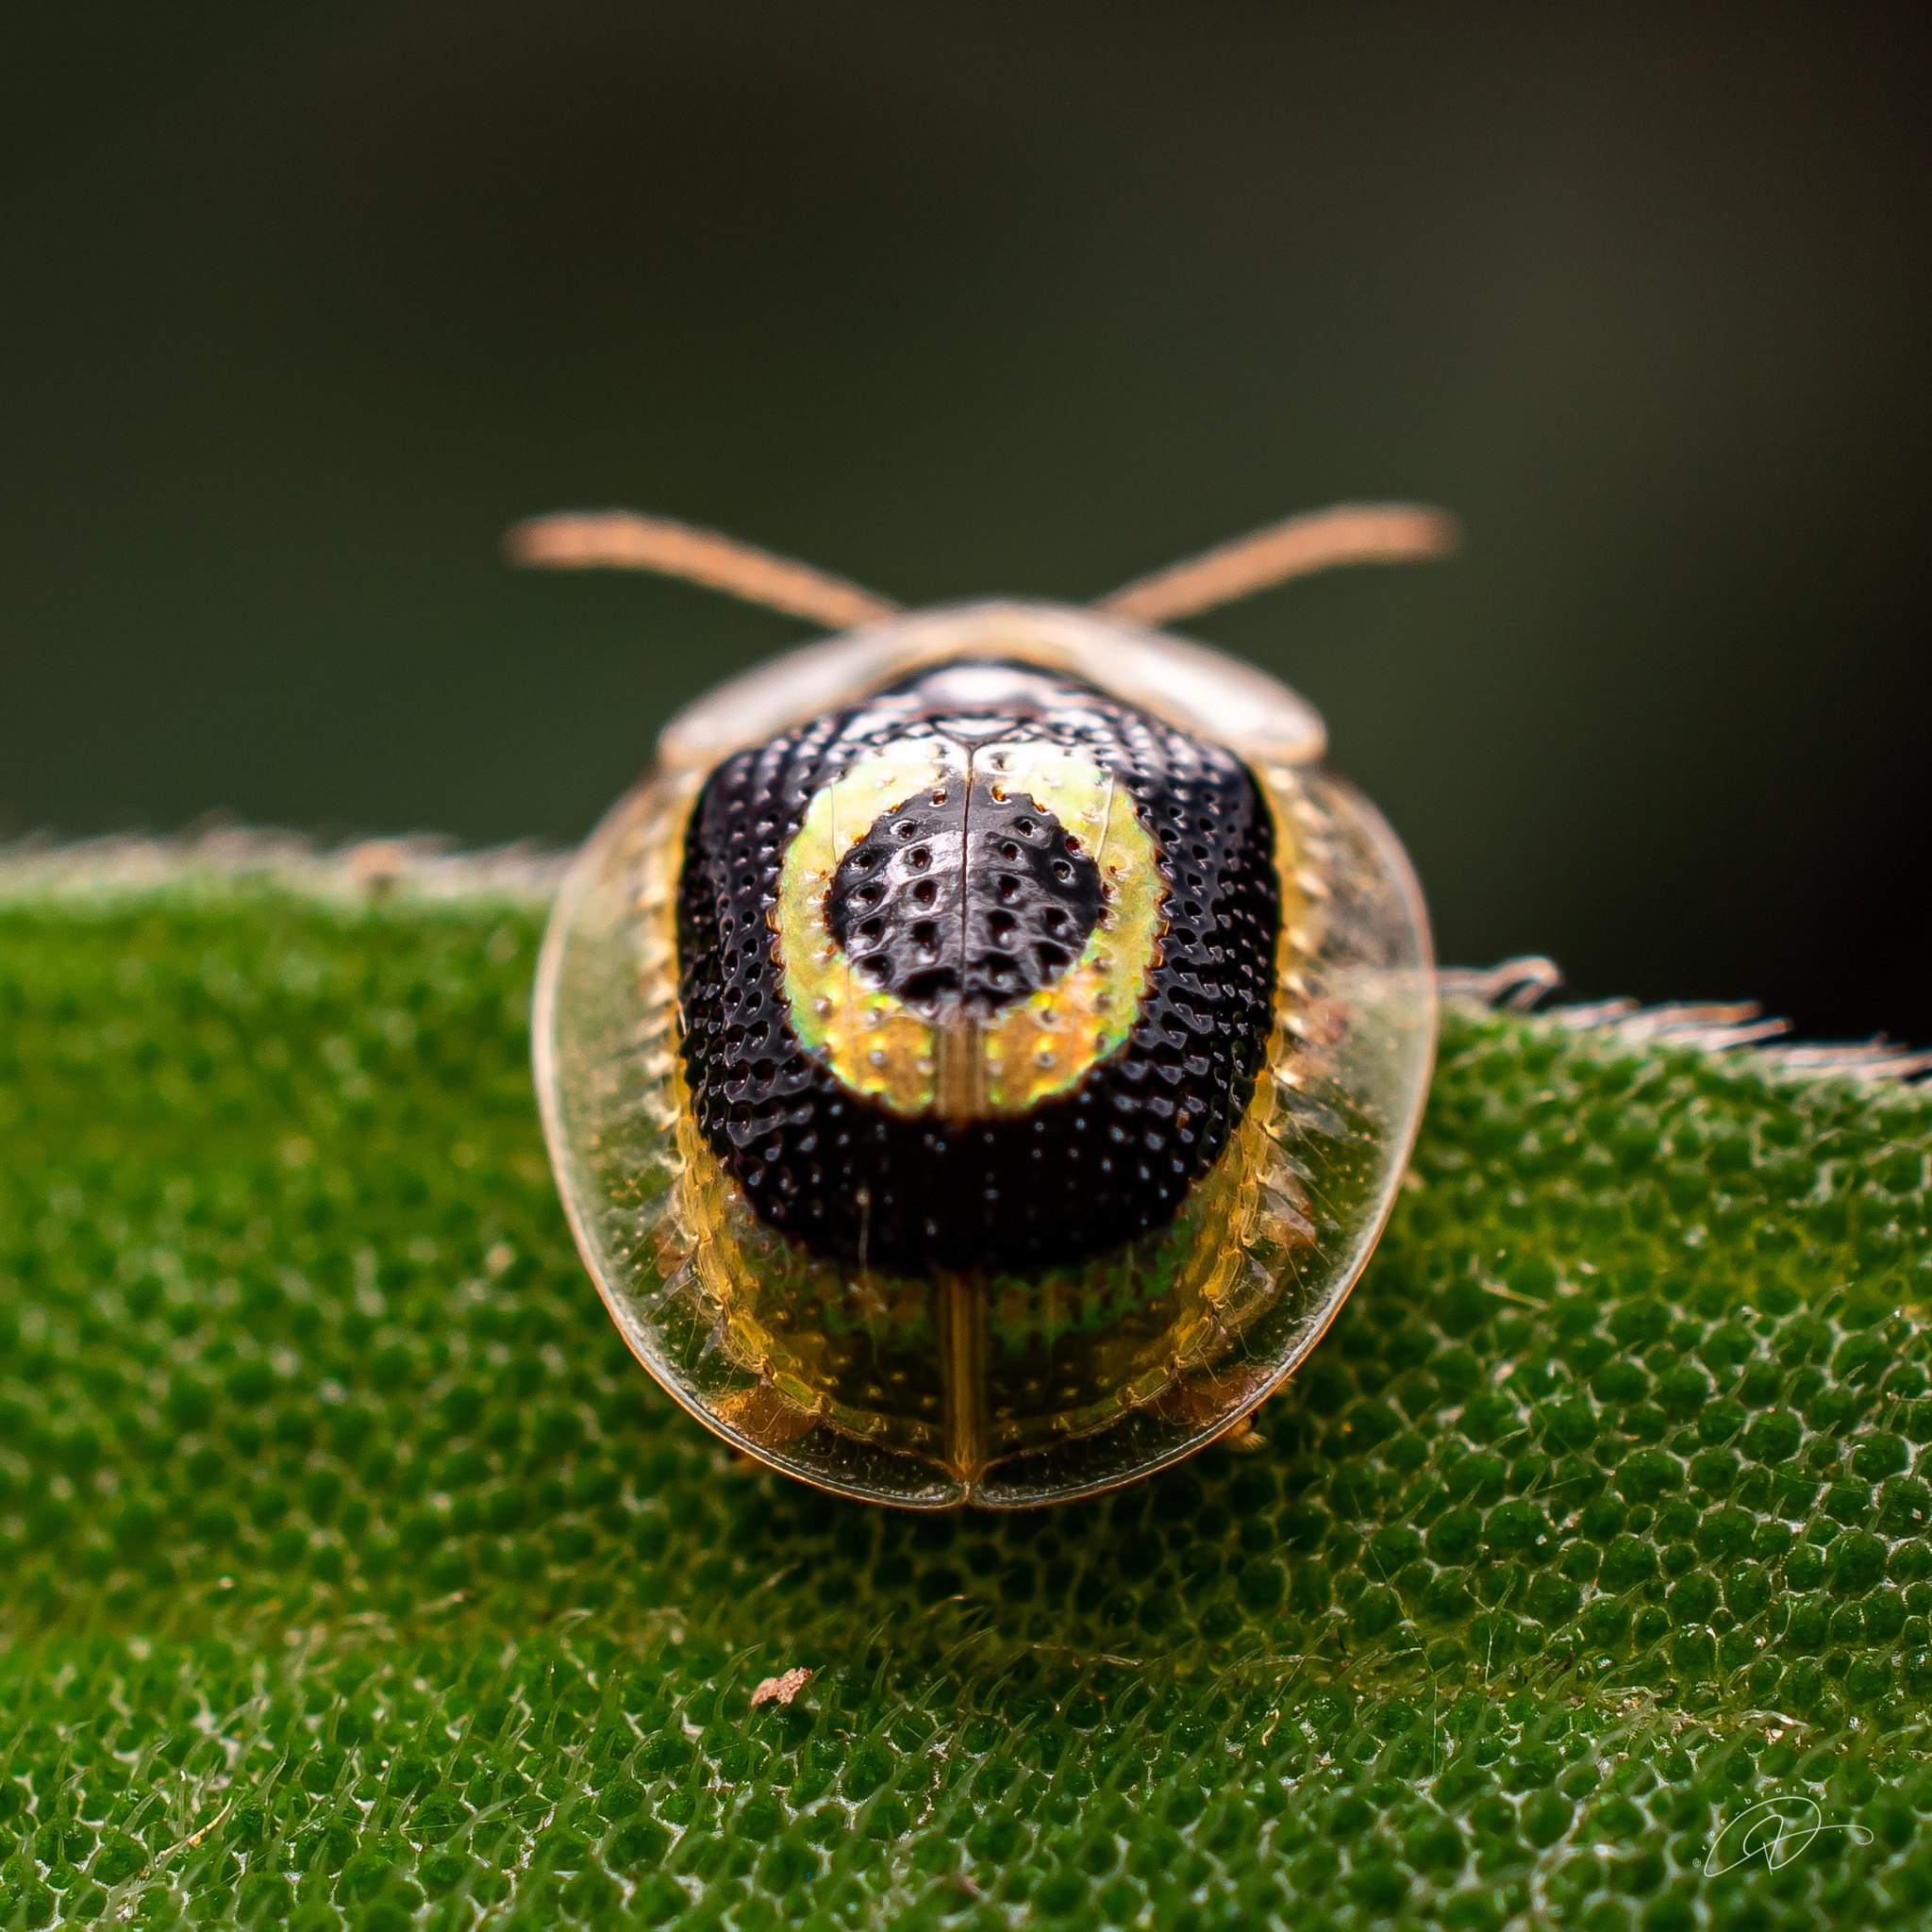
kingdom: Animalia
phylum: Arthropoda
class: Insecta
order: Coleoptera
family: Chrysomelidae
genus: Charidotis
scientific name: Charidotis concentrica
